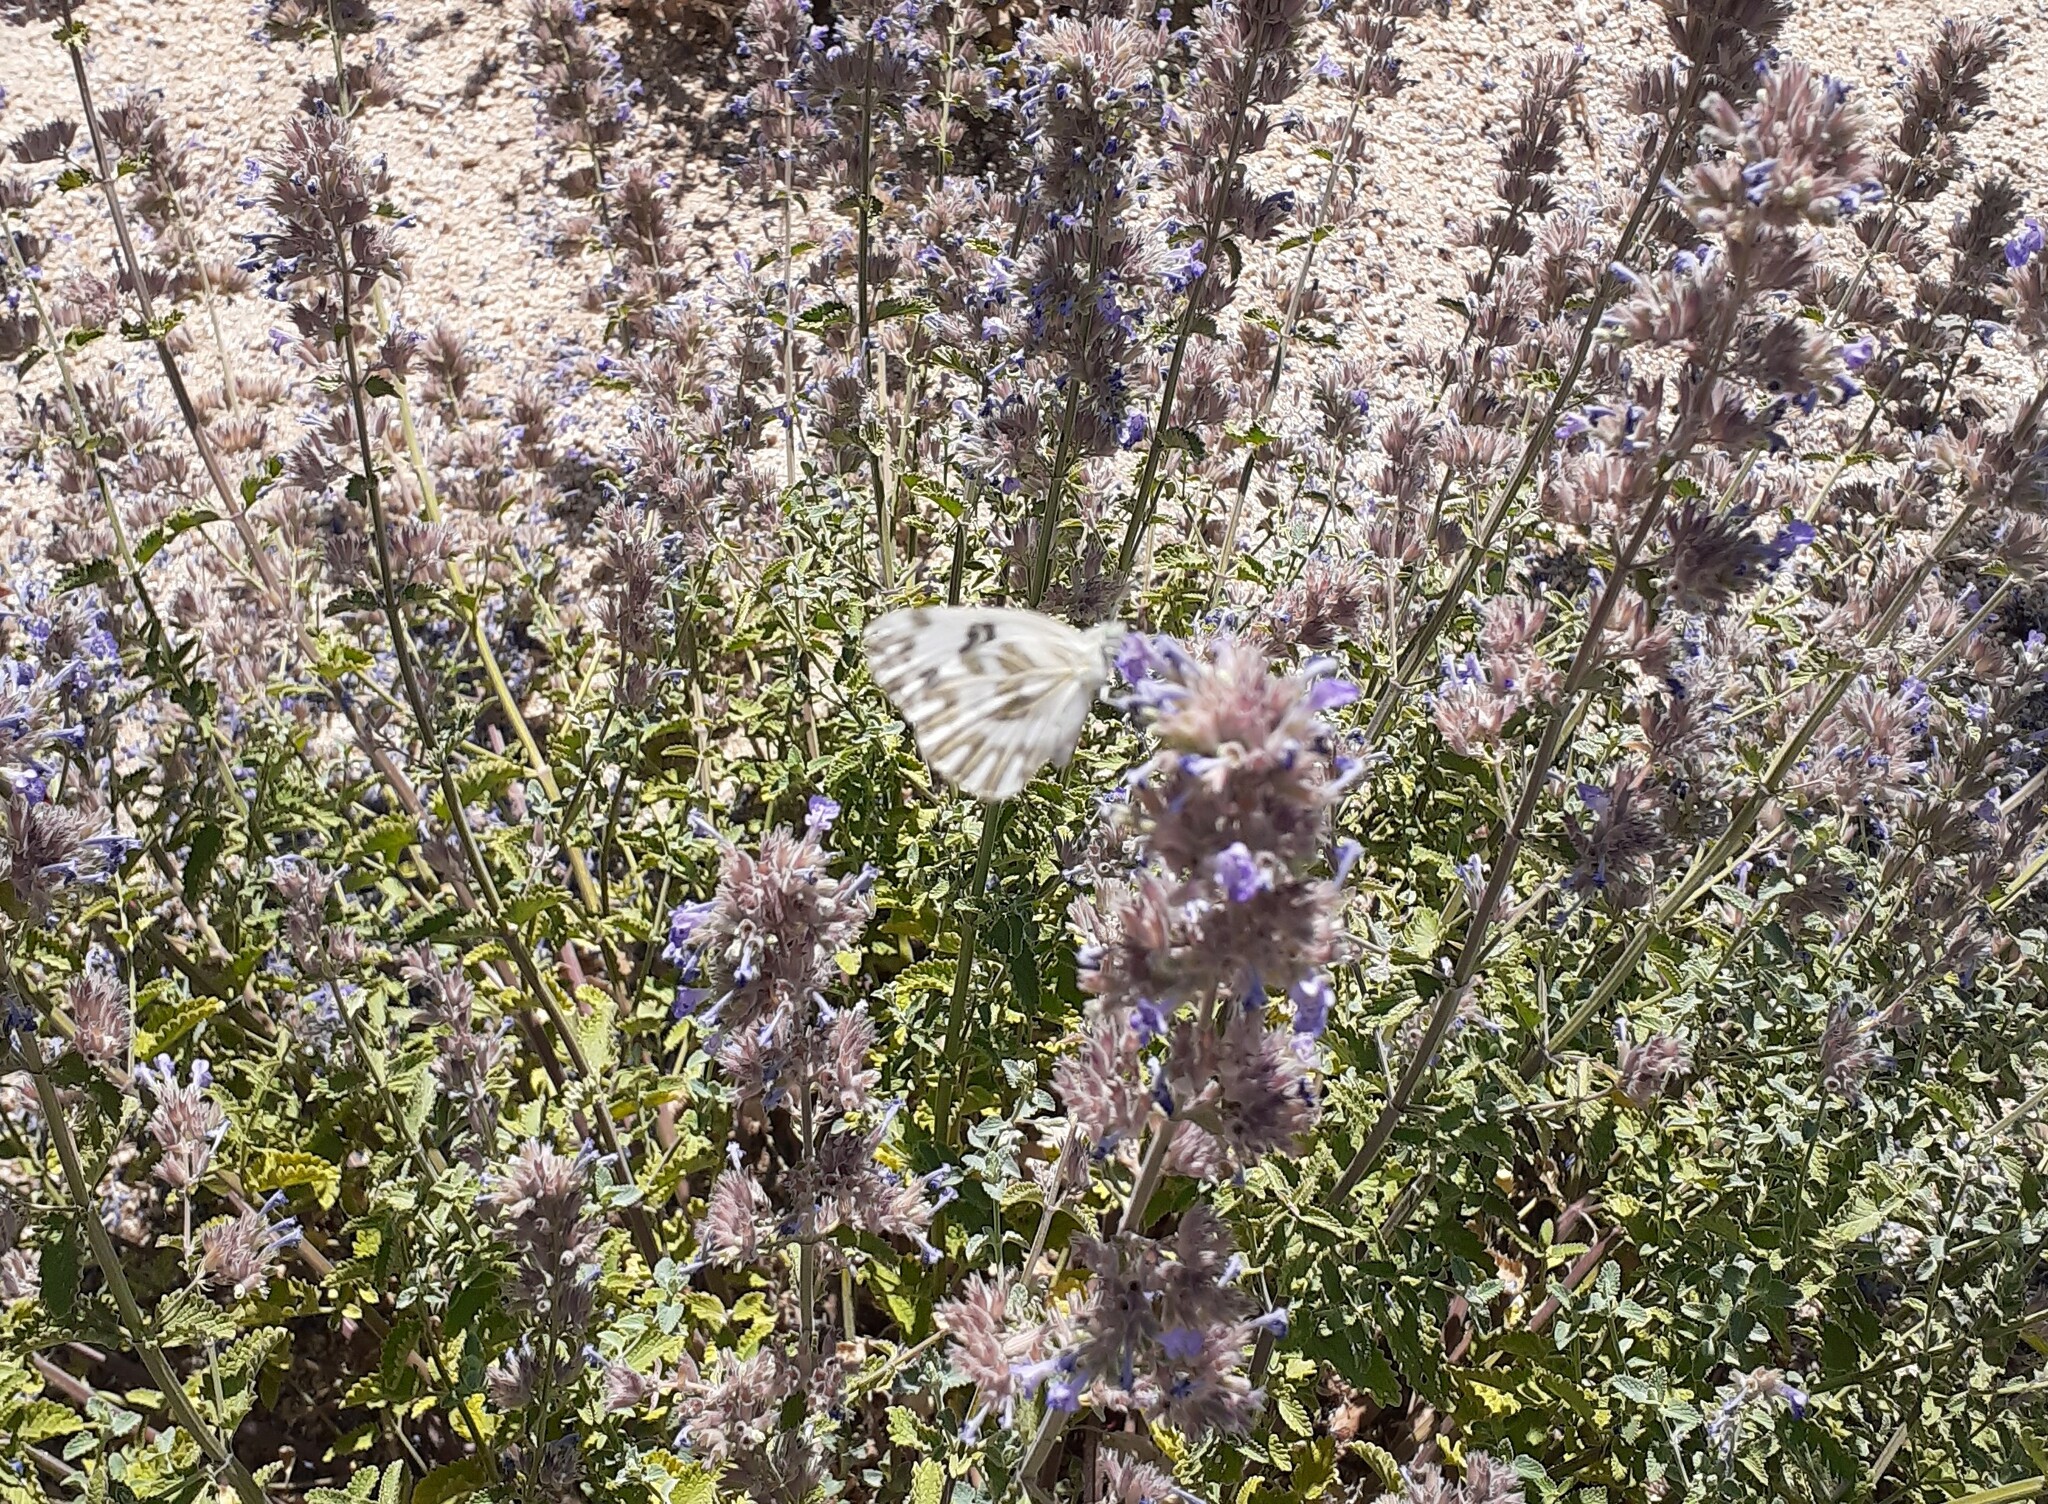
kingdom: Animalia
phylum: Arthropoda
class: Insecta
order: Lepidoptera
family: Pieridae
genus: Pontia
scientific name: Pontia beckerii
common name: Becker's white
